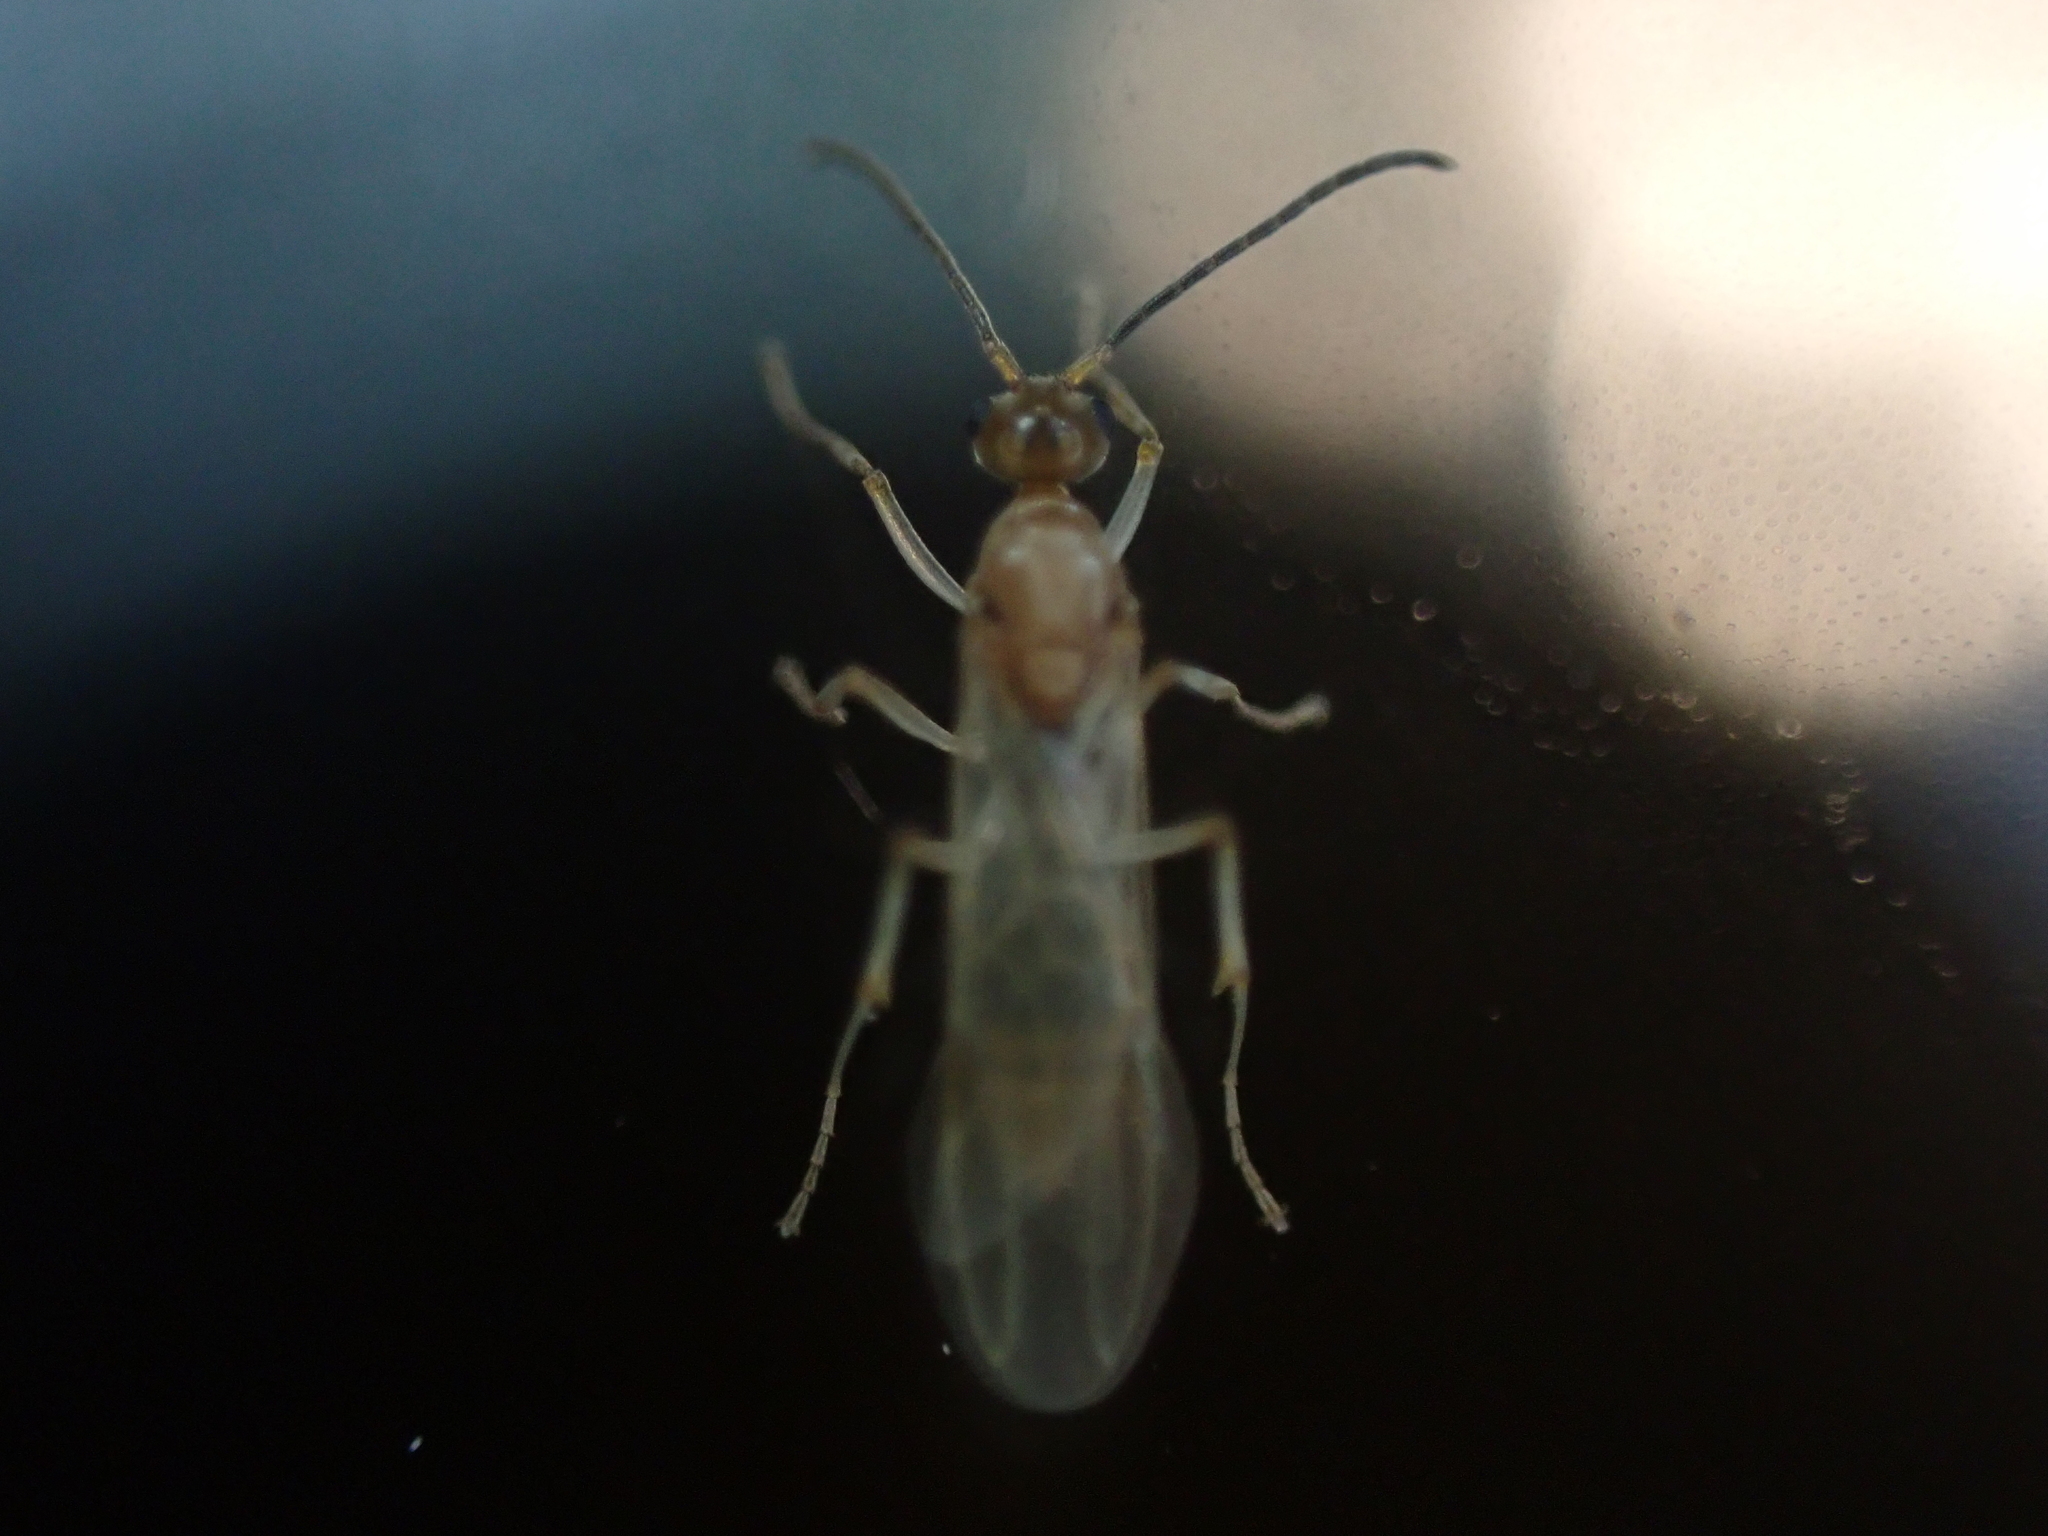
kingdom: Animalia
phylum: Arthropoda
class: Insecta
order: Hymenoptera
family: Formicidae
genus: Pachycondyla
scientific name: Pachycondyla chinensis
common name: Asian needle ant
